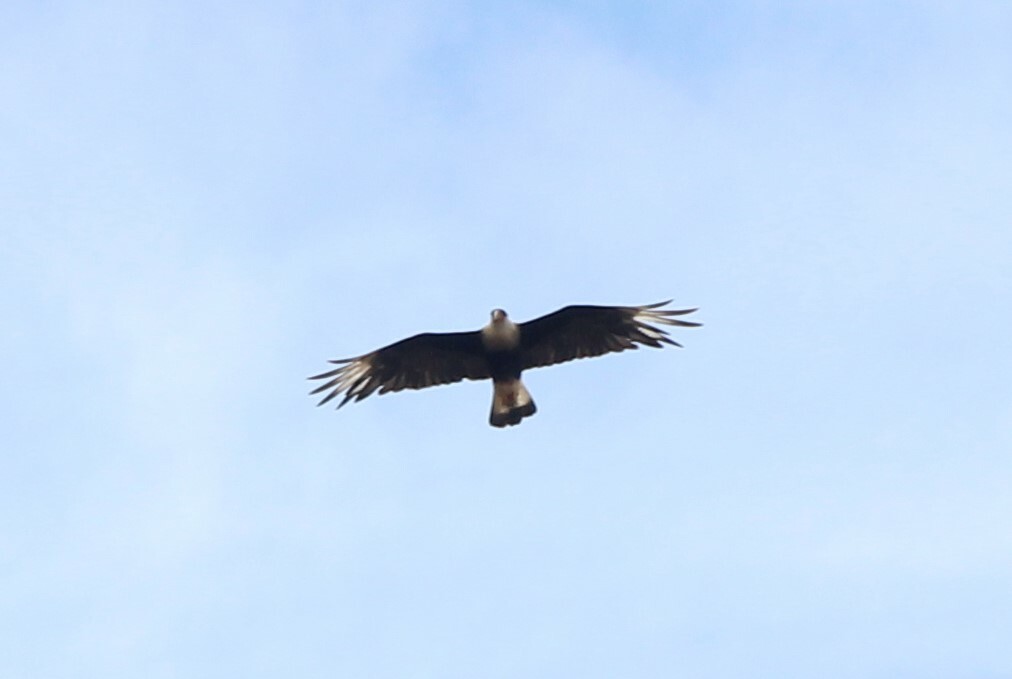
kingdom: Animalia
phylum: Chordata
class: Aves
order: Falconiformes
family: Falconidae
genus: Caracara
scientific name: Caracara plancus
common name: Southern caracara
